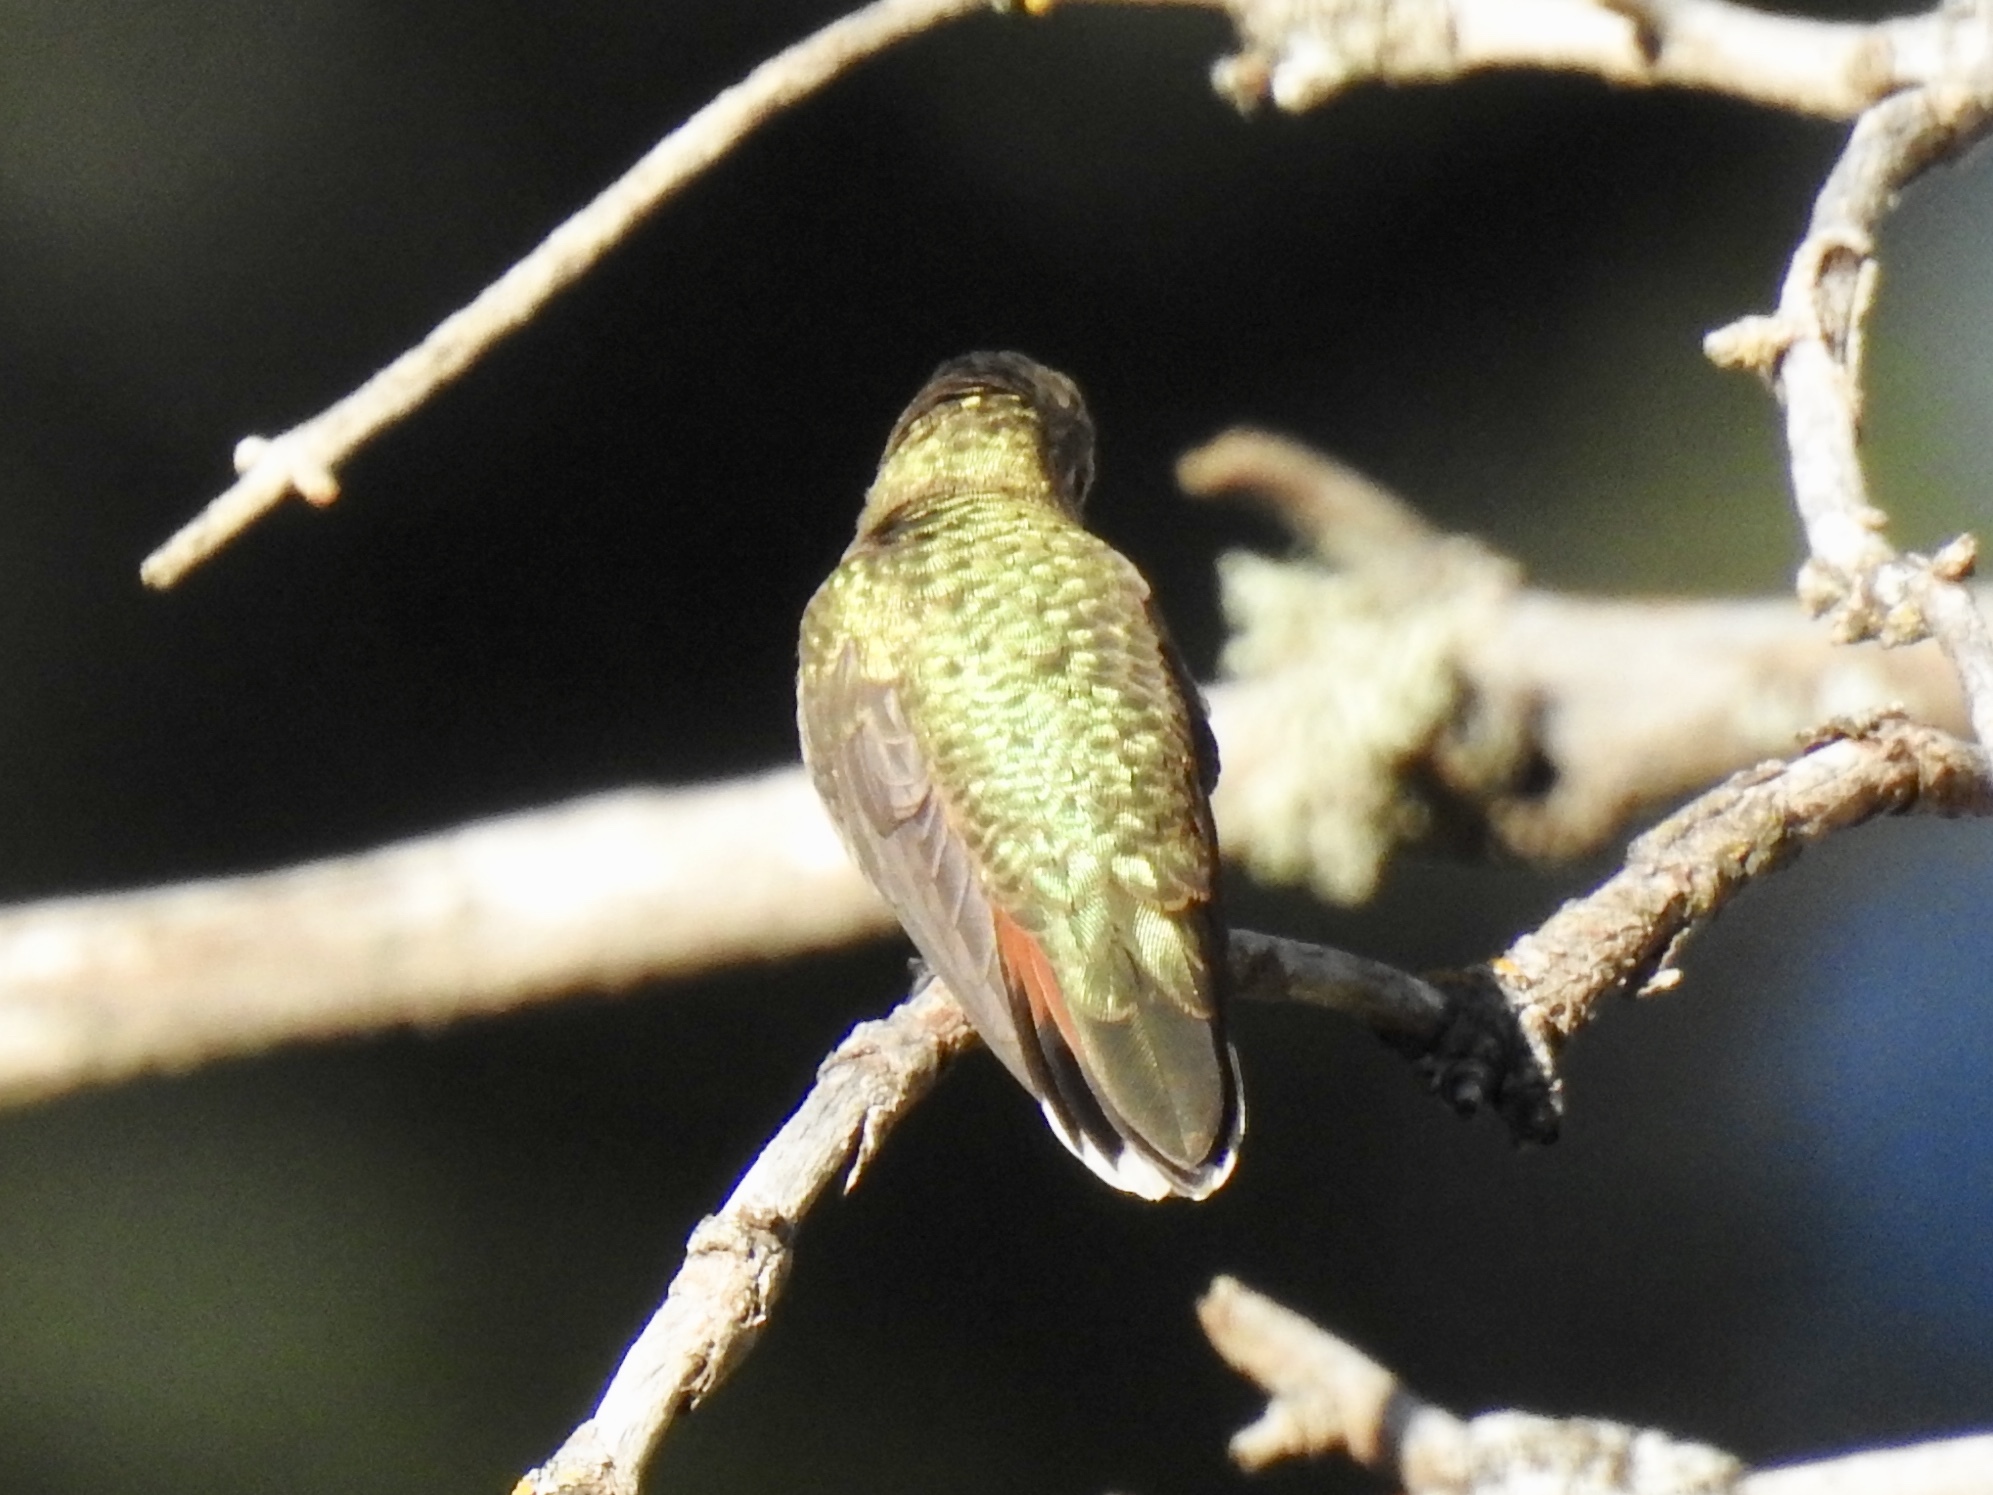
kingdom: Animalia
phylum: Chordata
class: Aves
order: Apodiformes
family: Trochilidae
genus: Selasphorus
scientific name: Selasphorus
